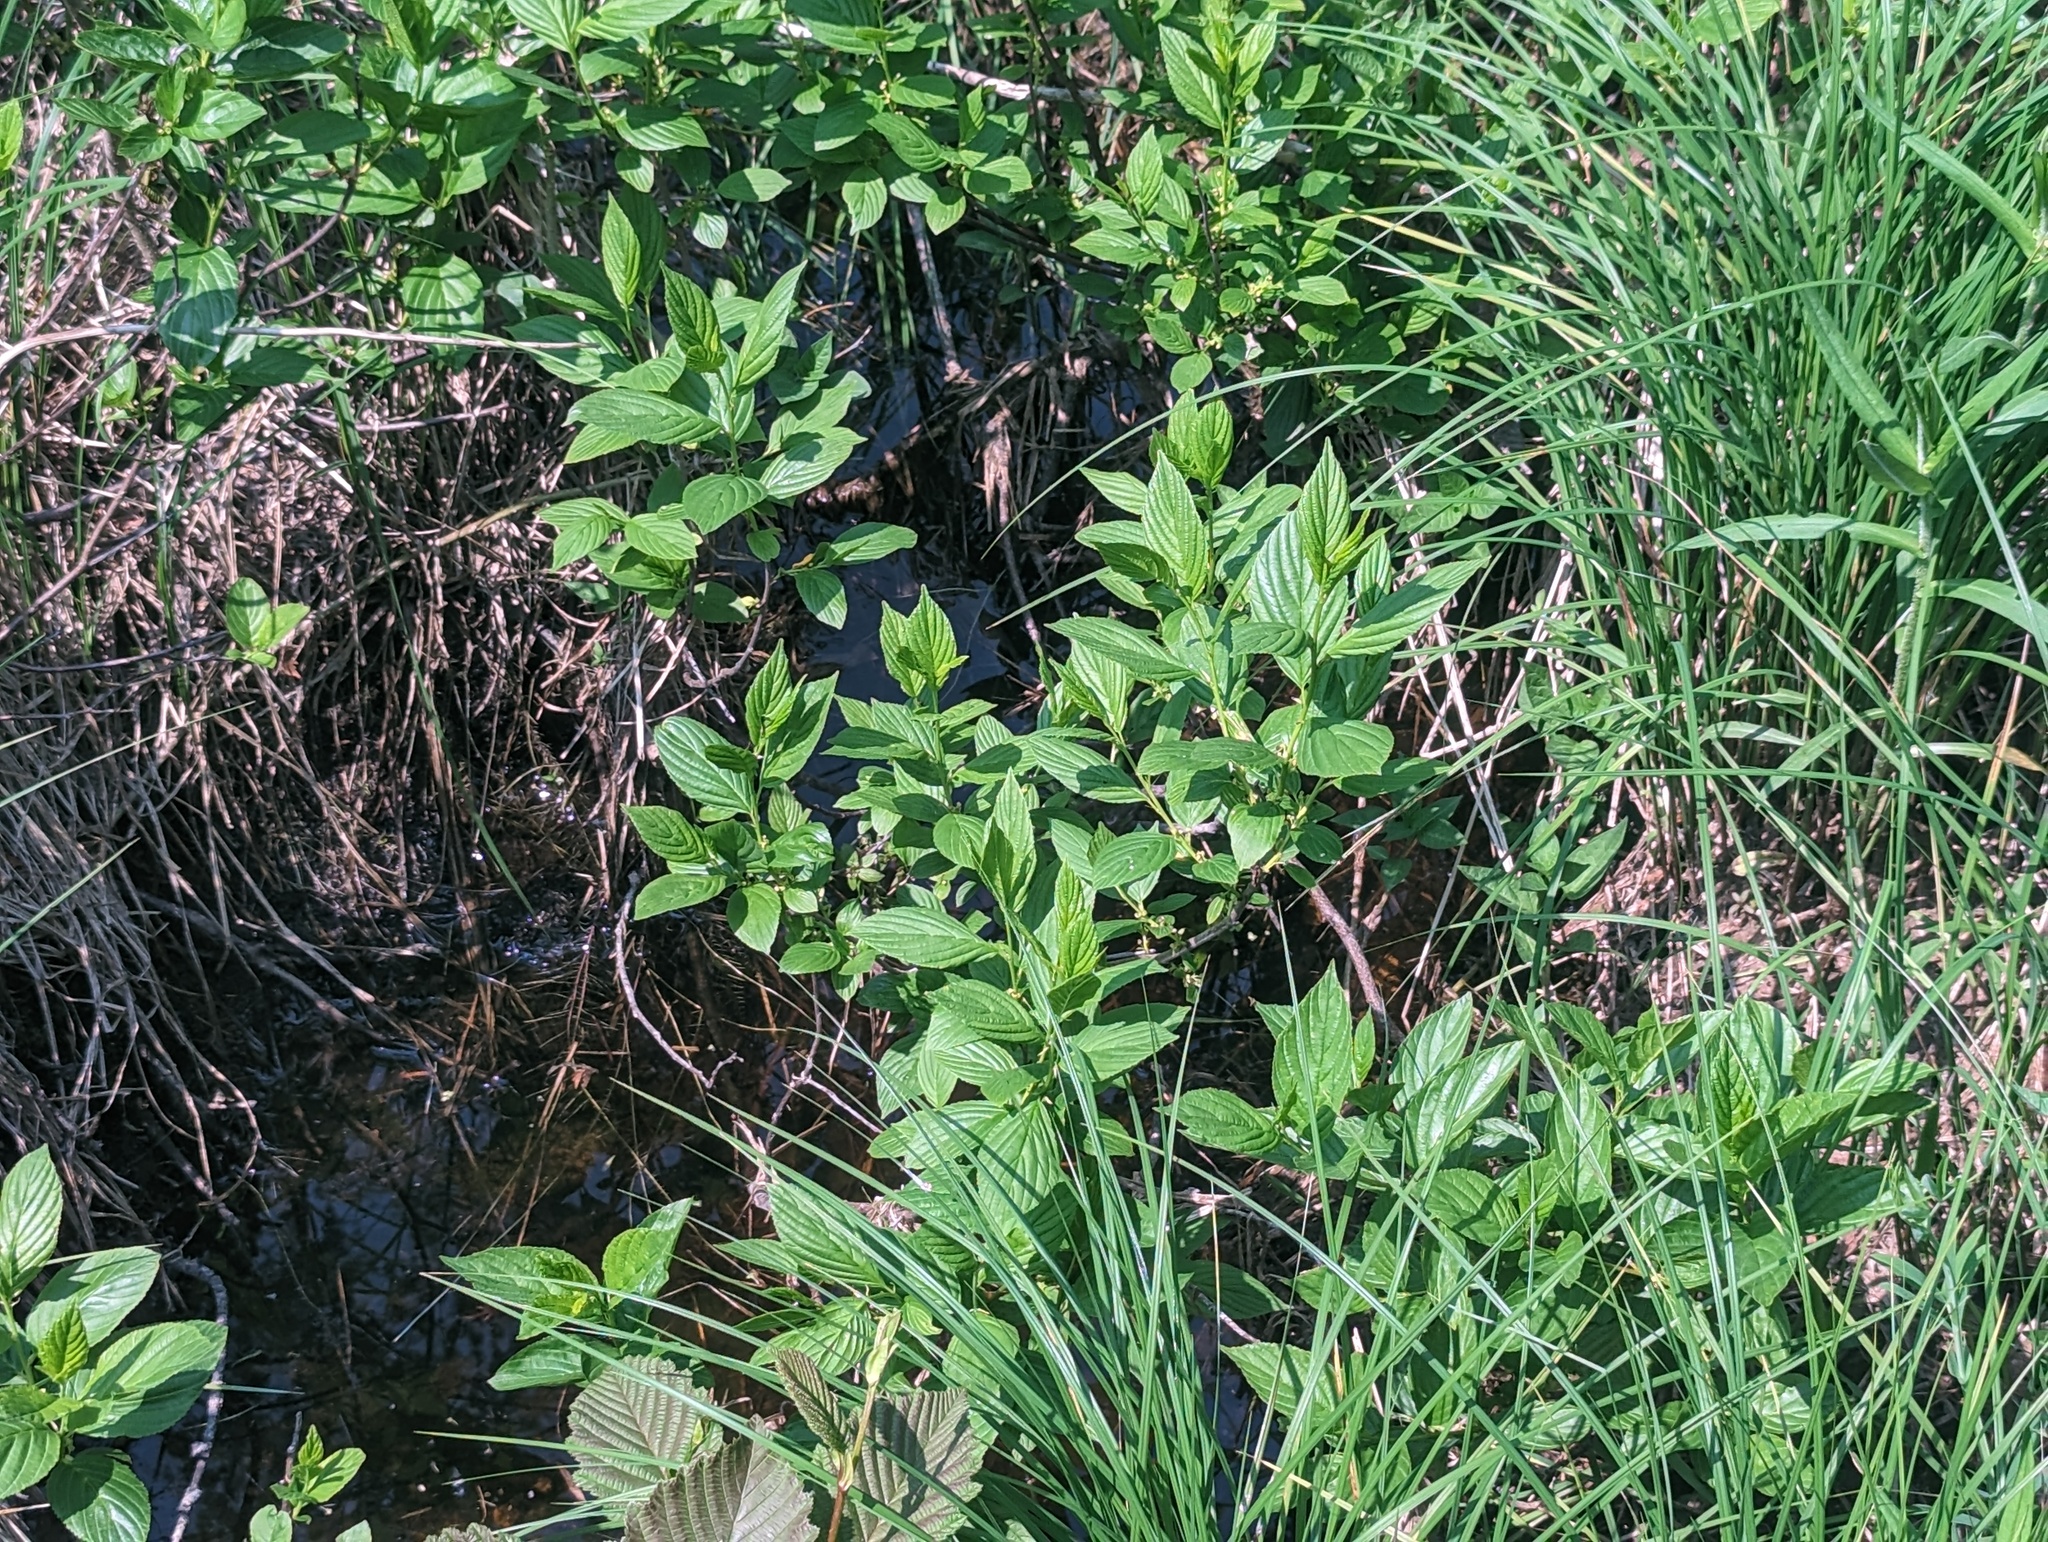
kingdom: Plantae
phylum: Tracheophyta
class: Magnoliopsida
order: Rosales
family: Rhamnaceae
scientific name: Rhamnaceae
